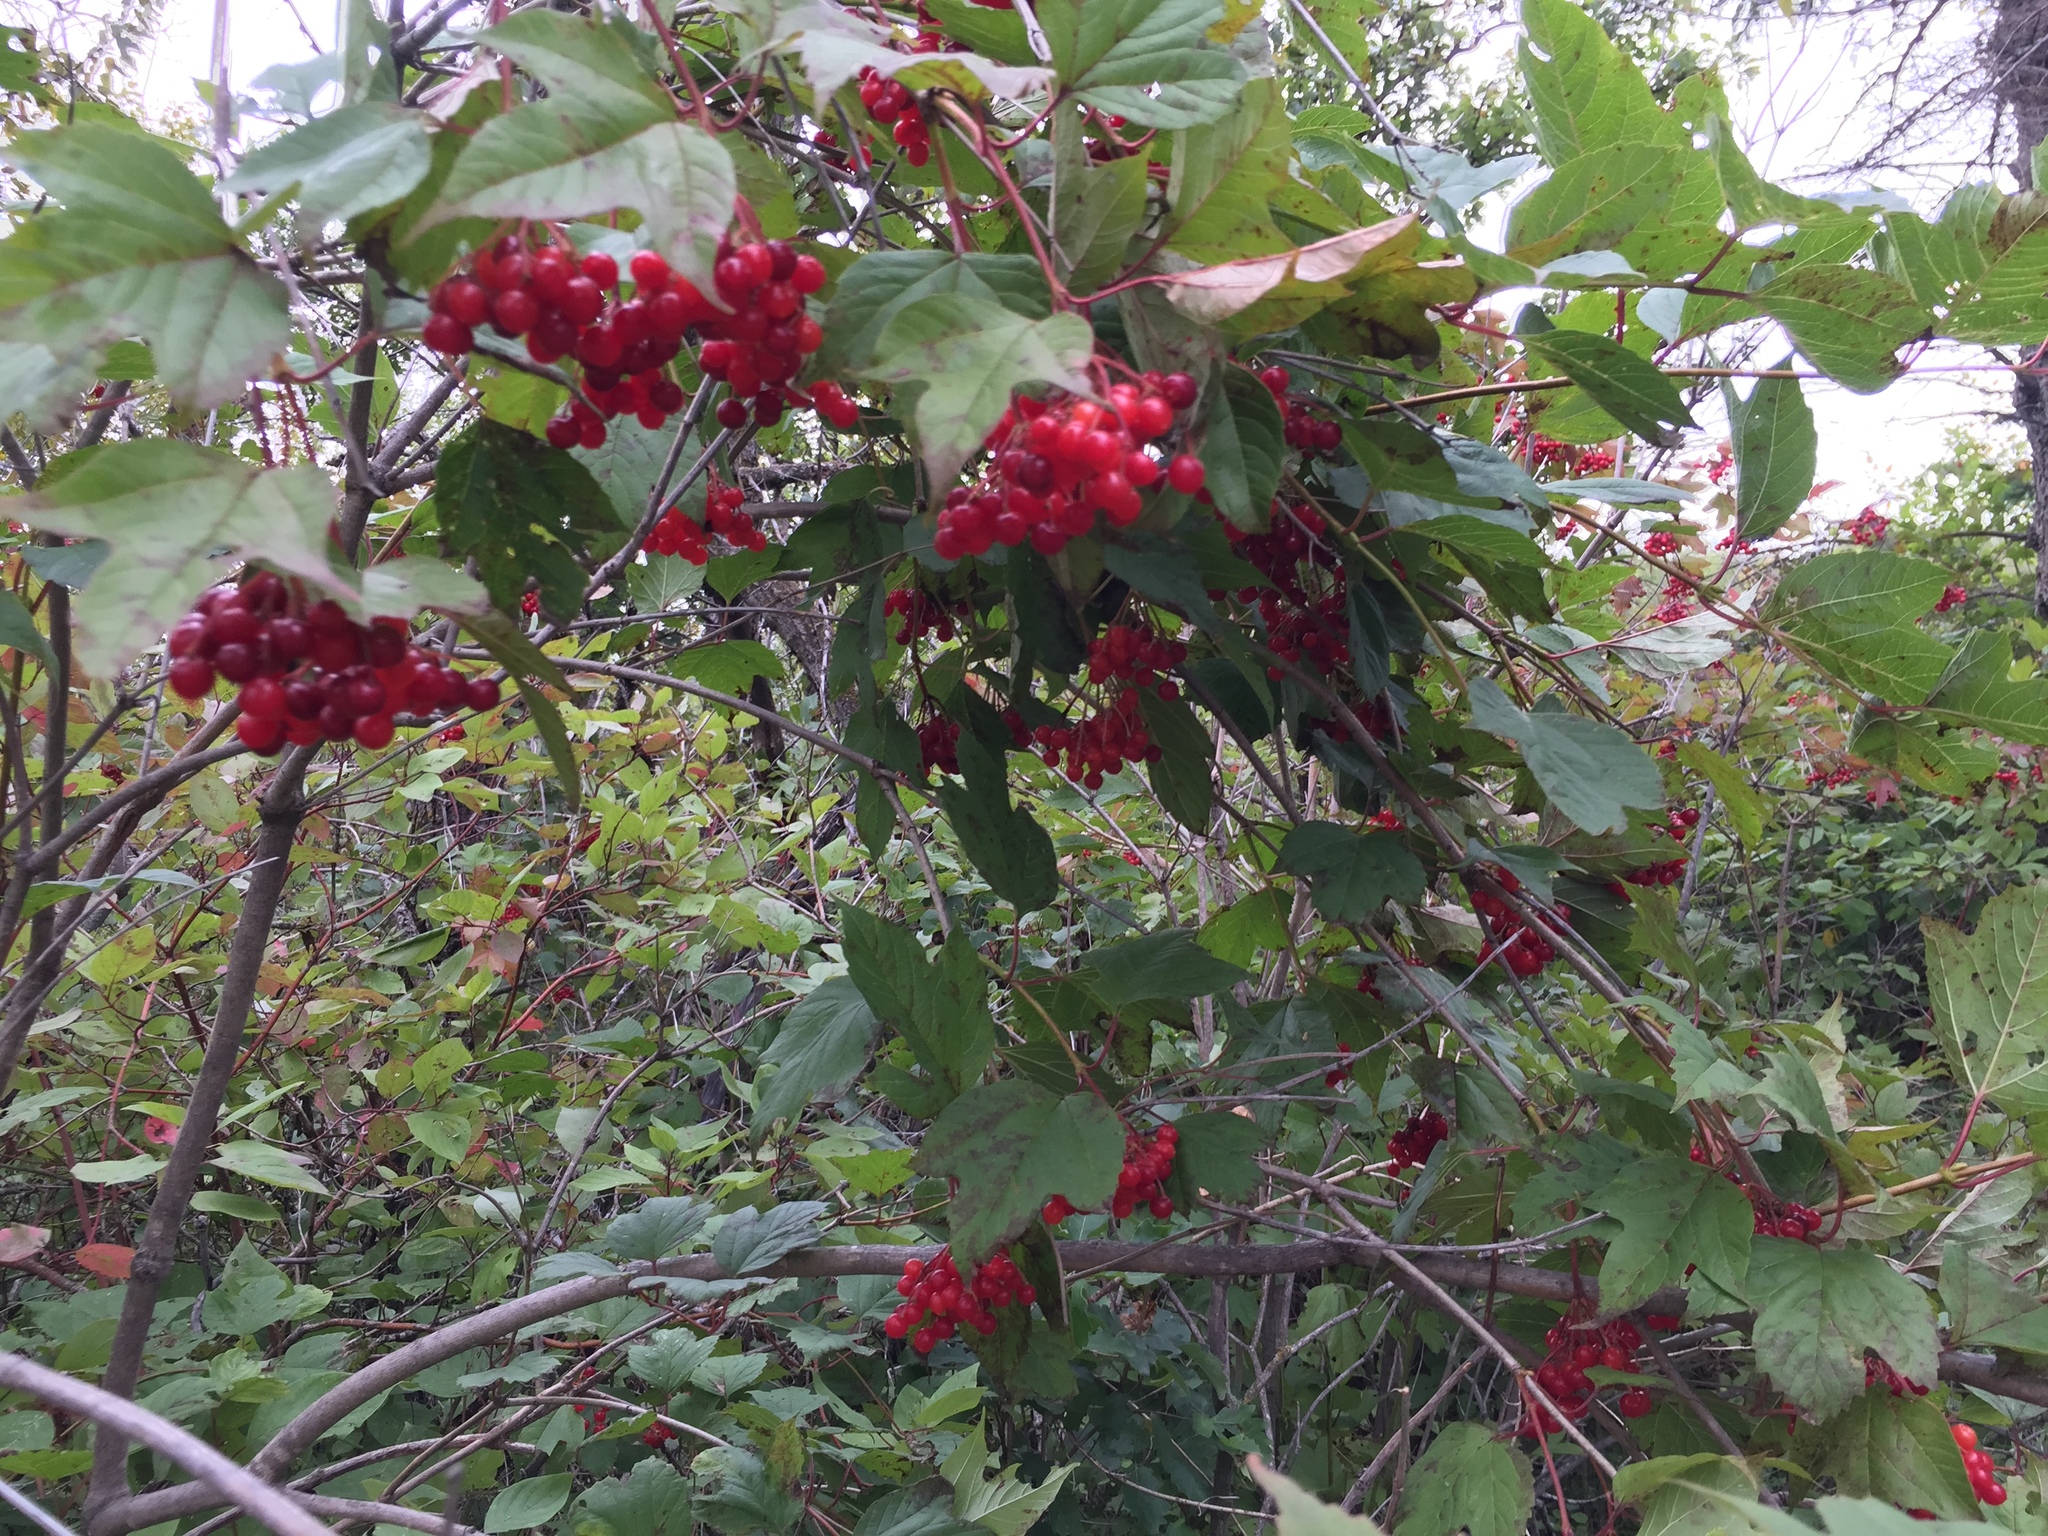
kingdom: Plantae
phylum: Tracheophyta
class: Magnoliopsida
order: Dipsacales
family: Viburnaceae
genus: Viburnum
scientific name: Viburnum trilobum
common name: American cranberrybush
